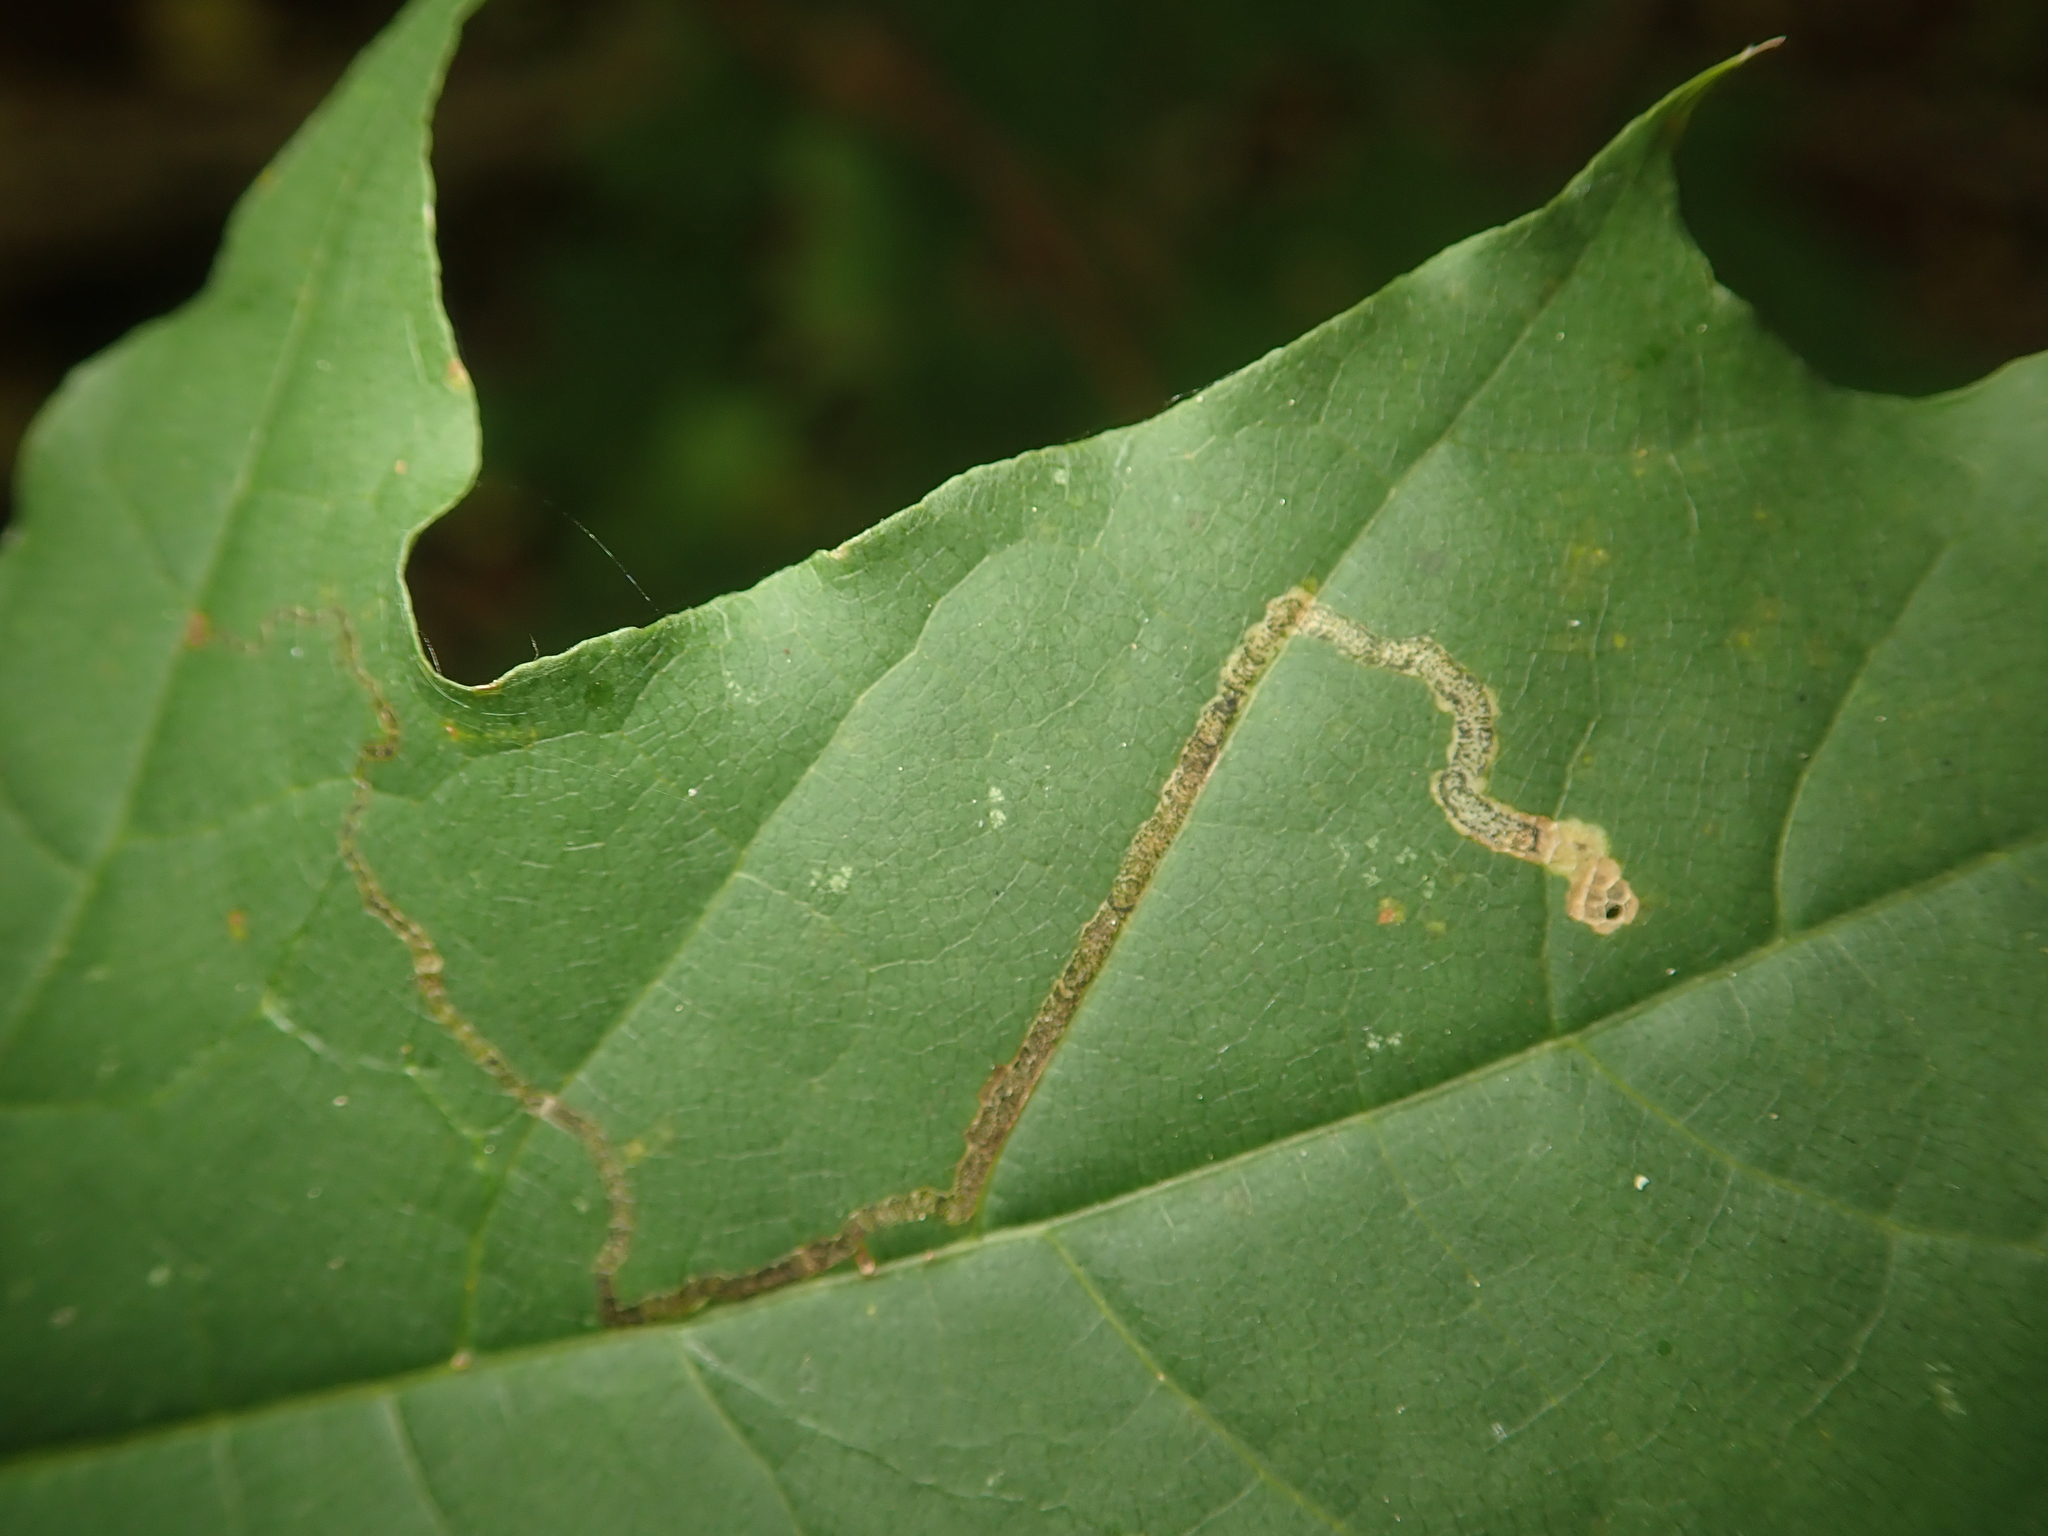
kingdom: Animalia
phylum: Arthropoda
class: Insecta
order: Lepidoptera
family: Nepticulidae
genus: Stigmella
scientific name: Stigmella aceris
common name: Scarce maple pigmy
